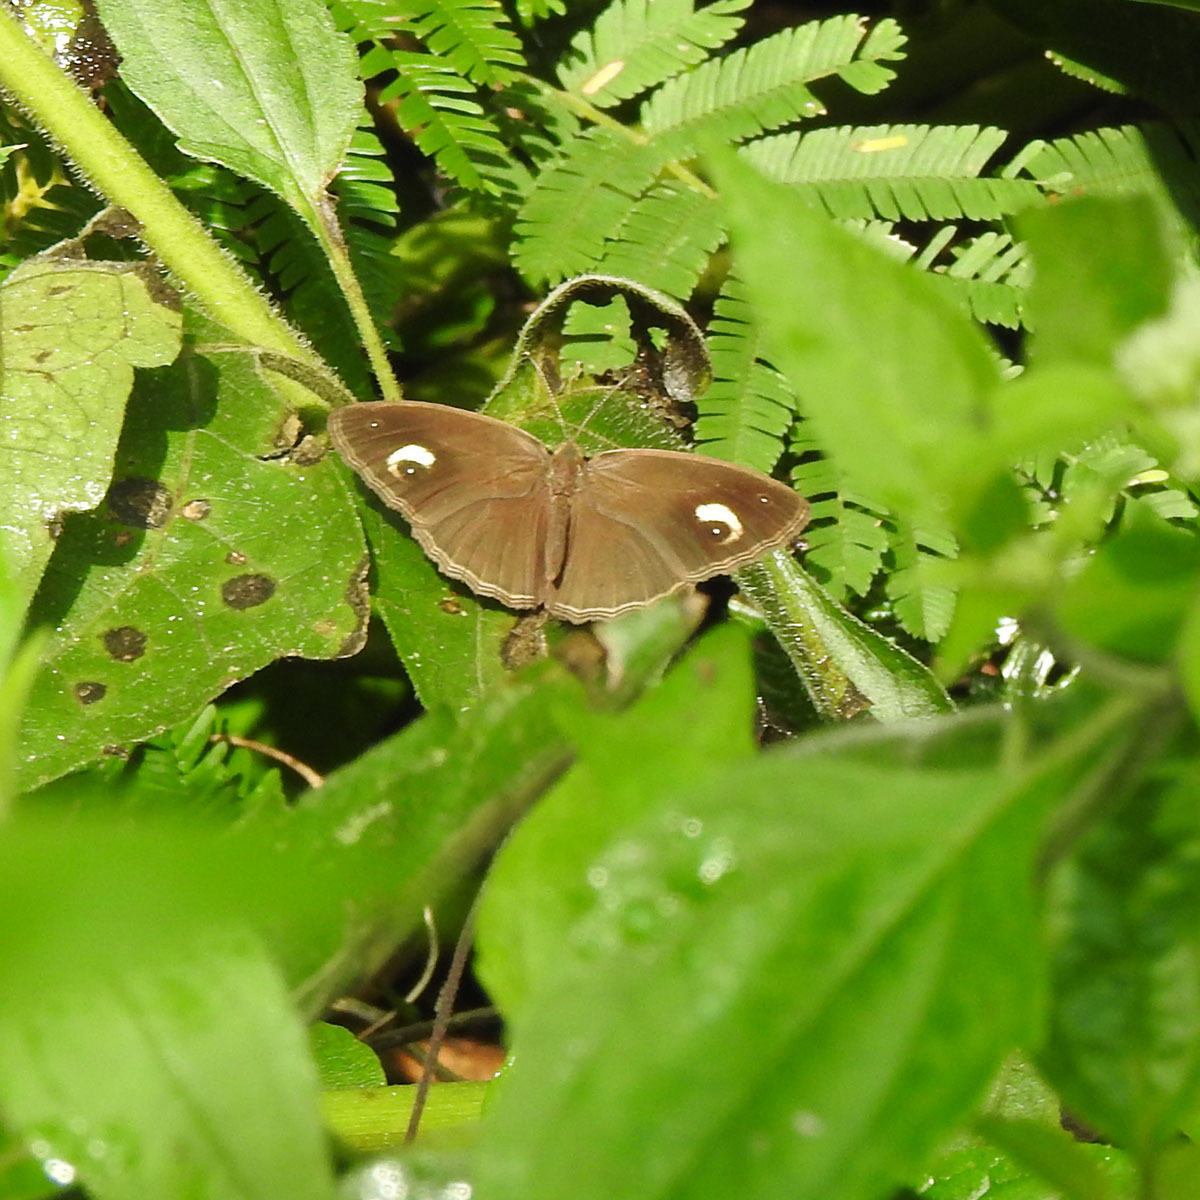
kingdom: Animalia
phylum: Arthropoda
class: Insecta
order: Lepidoptera
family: Nymphalidae
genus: Mycalesis
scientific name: Mycalesis patnia
